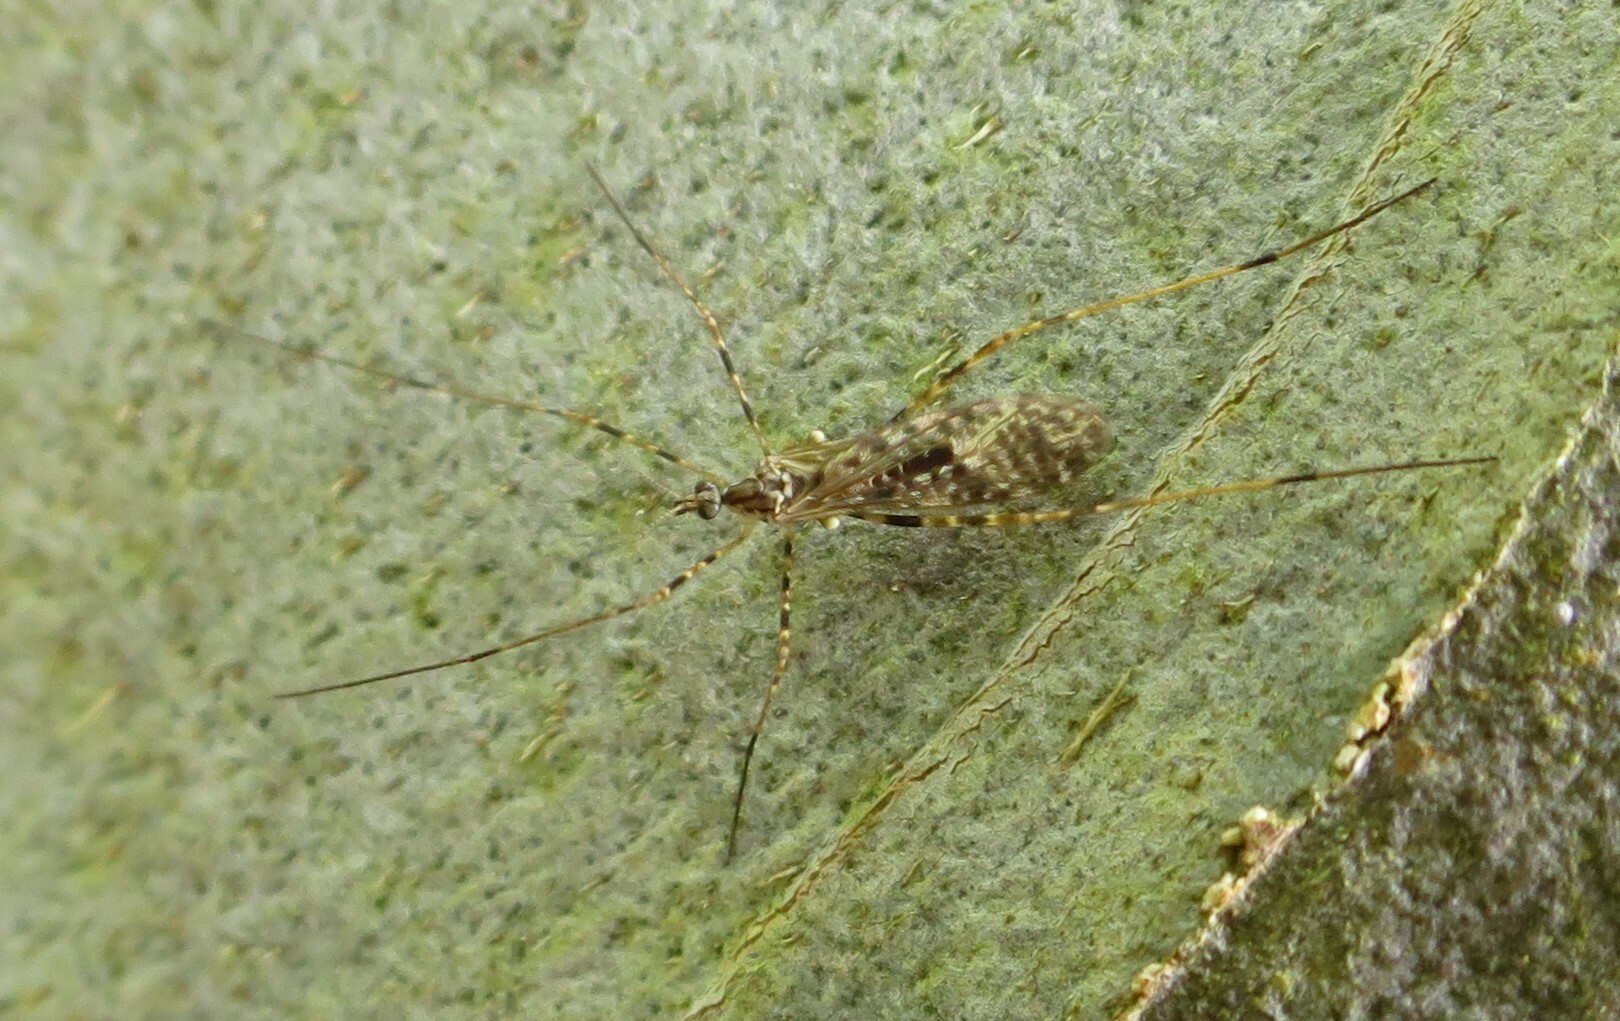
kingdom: Animalia
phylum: Arthropoda
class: Insecta
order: Diptera
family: Limoniidae
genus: Amphineurus
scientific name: Amphineurus hudsoni
